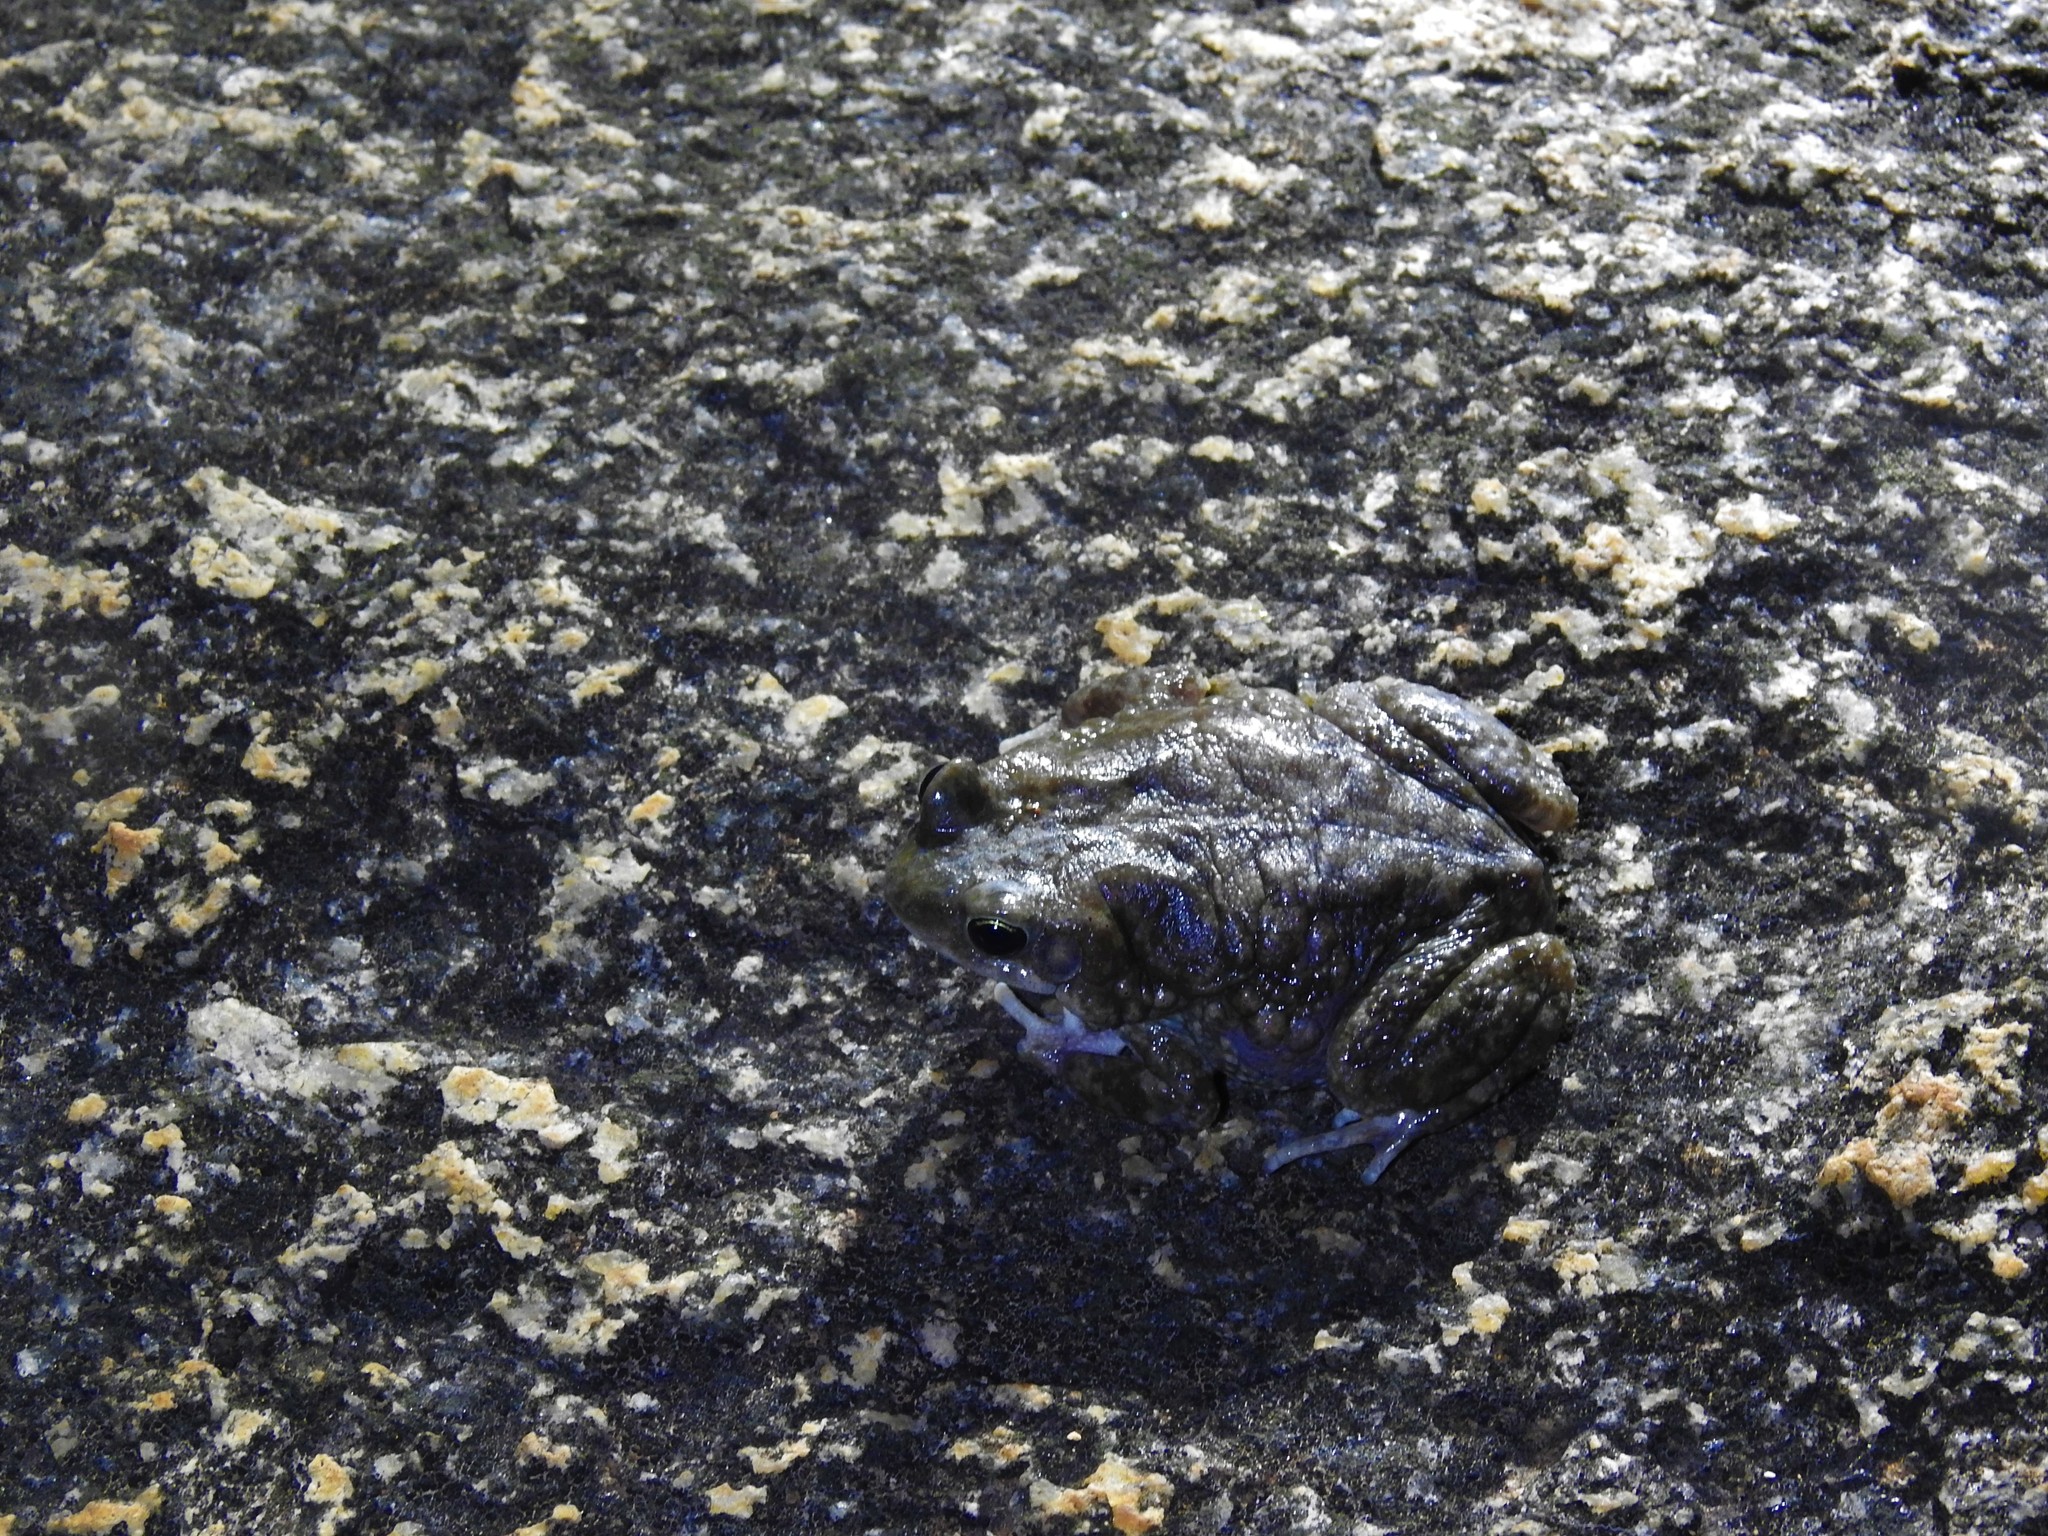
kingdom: Animalia
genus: Firouzophrynus
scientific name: Firouzophrynus
